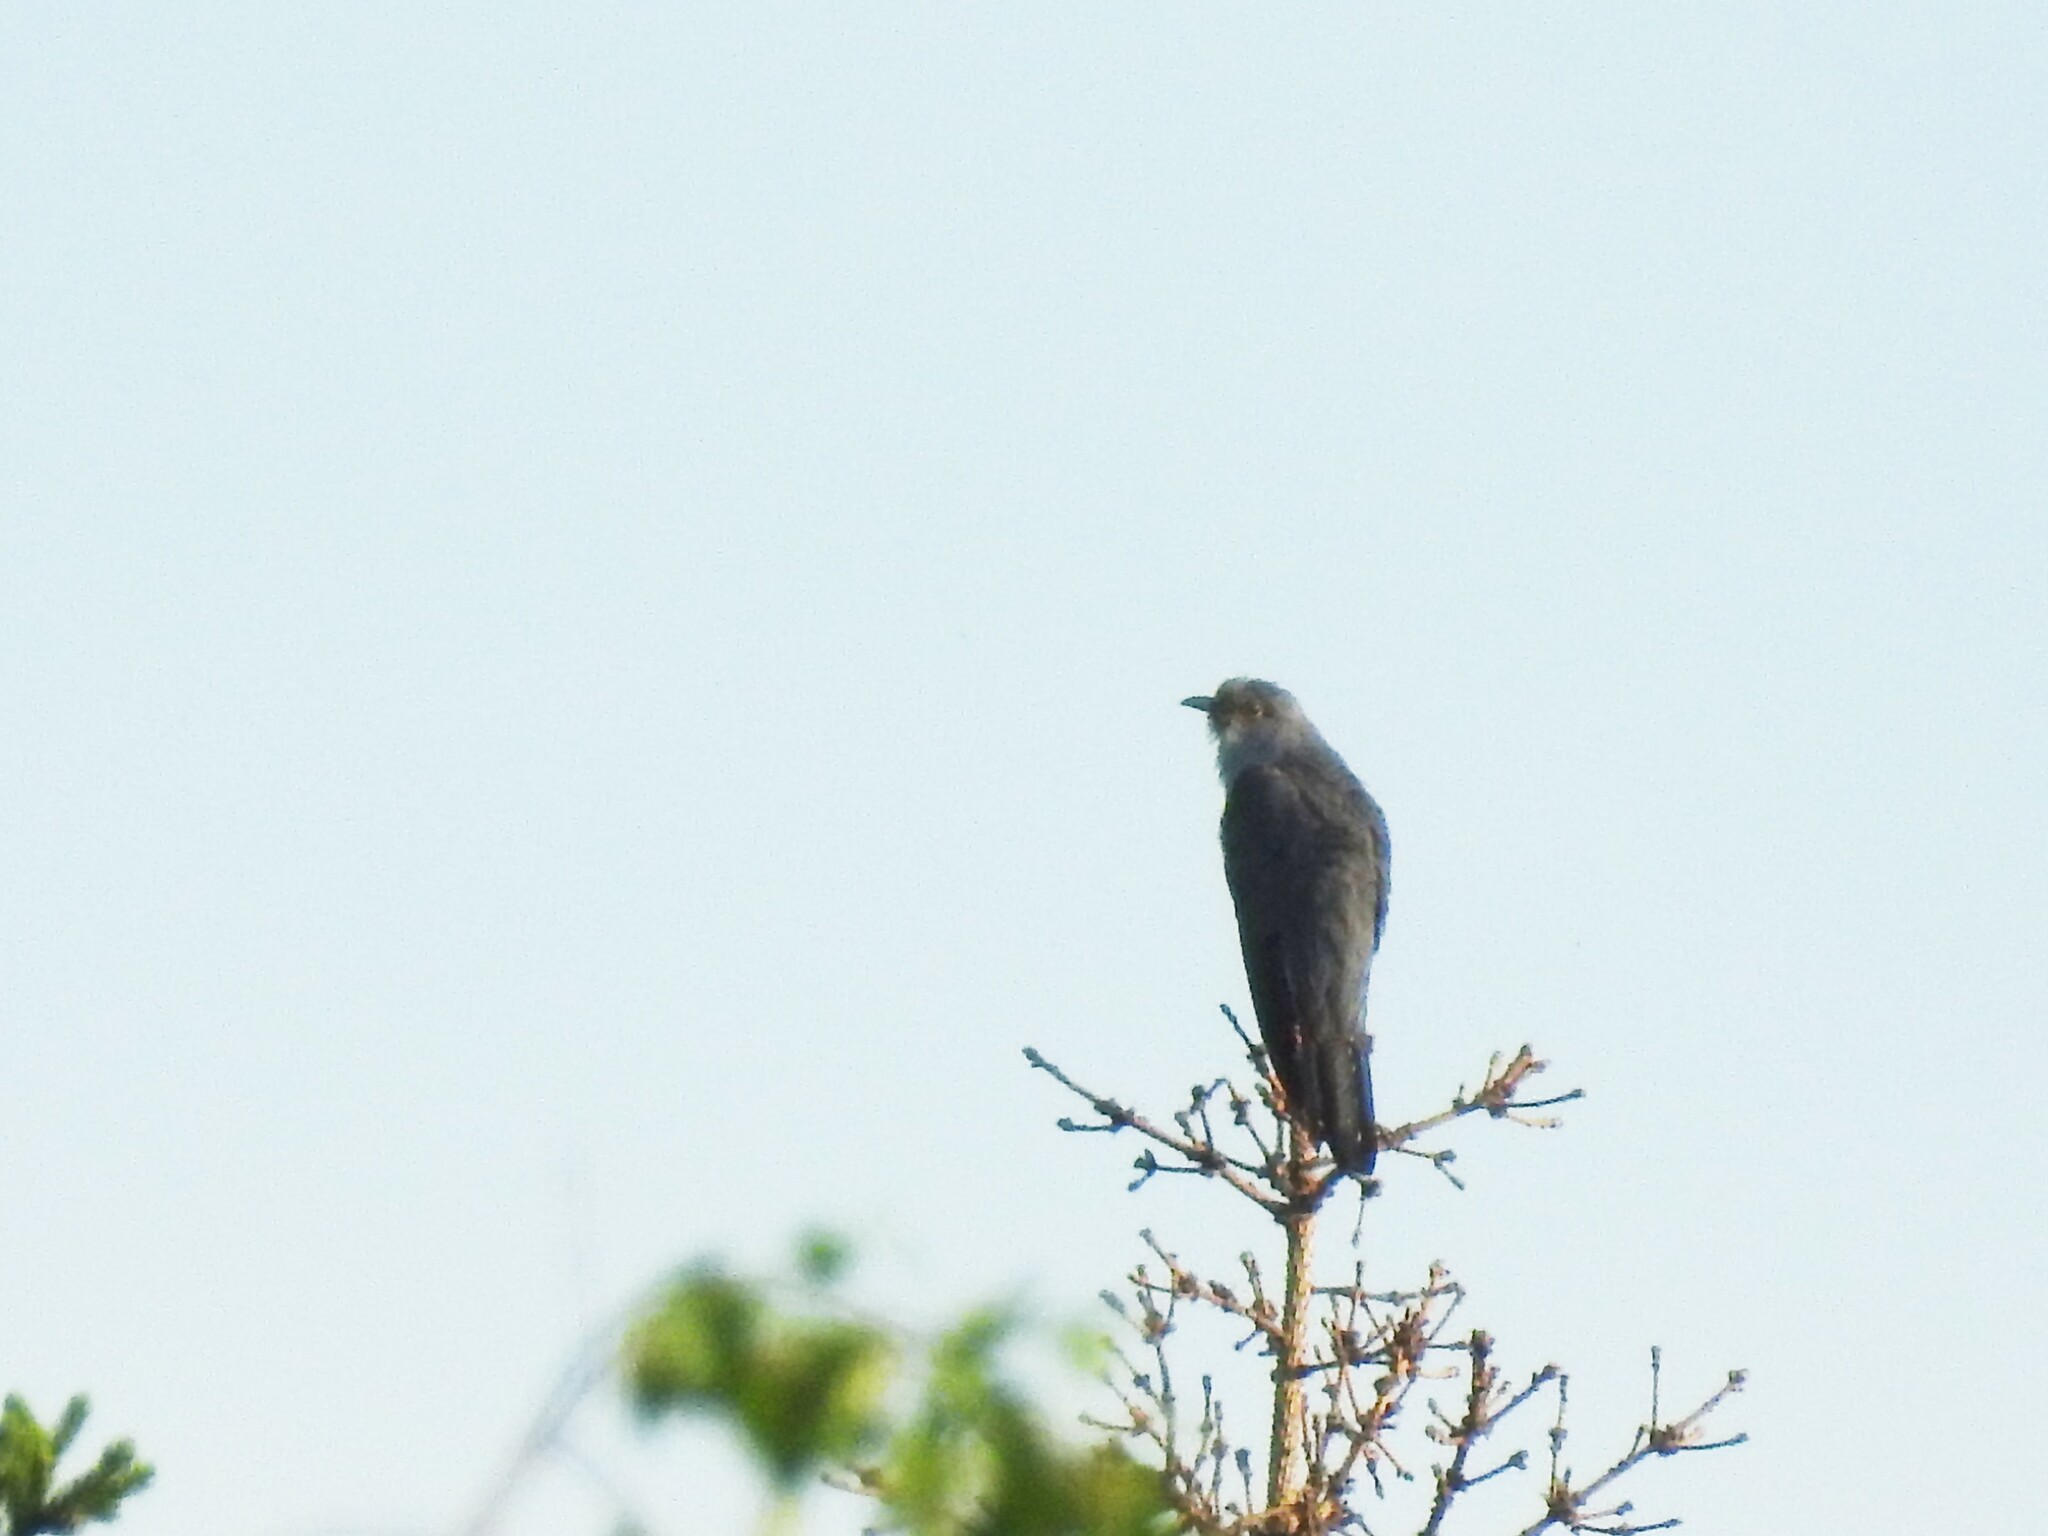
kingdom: Animalia
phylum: Chordata
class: Aves
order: Cuculiformes
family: Cuculidae
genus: Cuculus
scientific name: Cuculus optatus
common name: Oriental cuckoo
